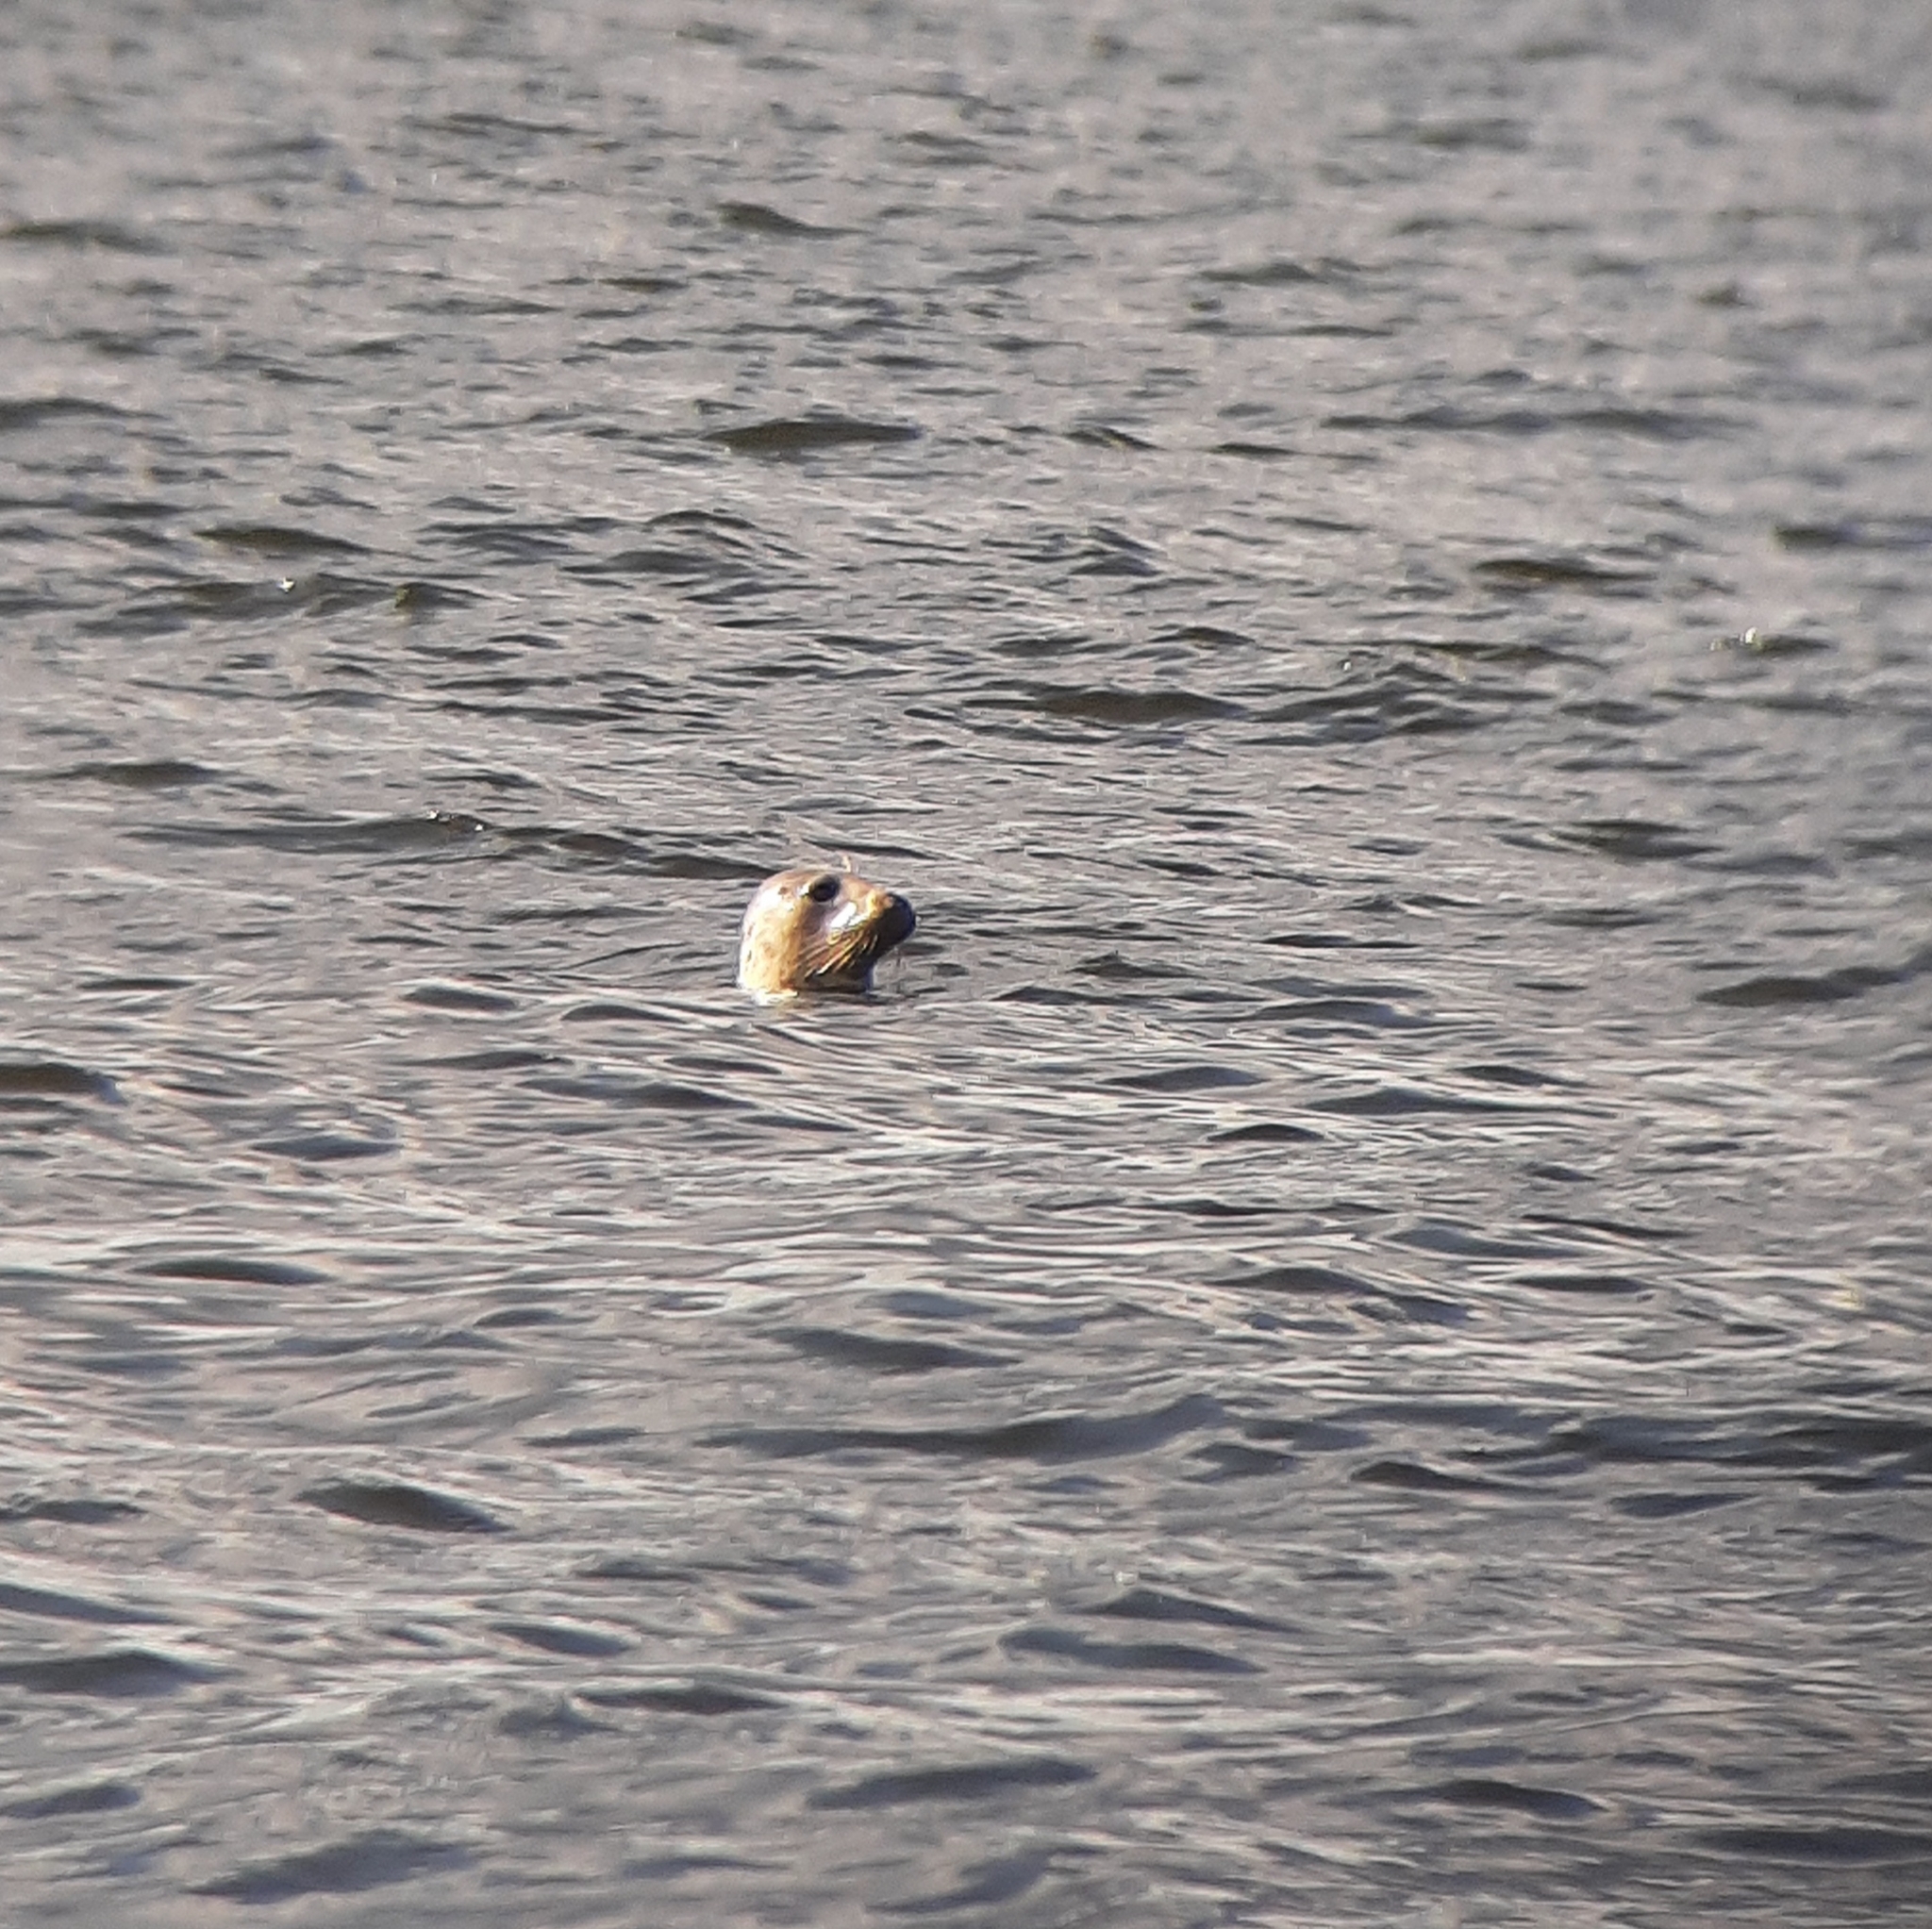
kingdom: Animalia
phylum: Chordata
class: Mammalia
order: Carnivora
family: Phocidae
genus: Halichoerus
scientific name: Halichoerus grypus
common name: Grey seal
